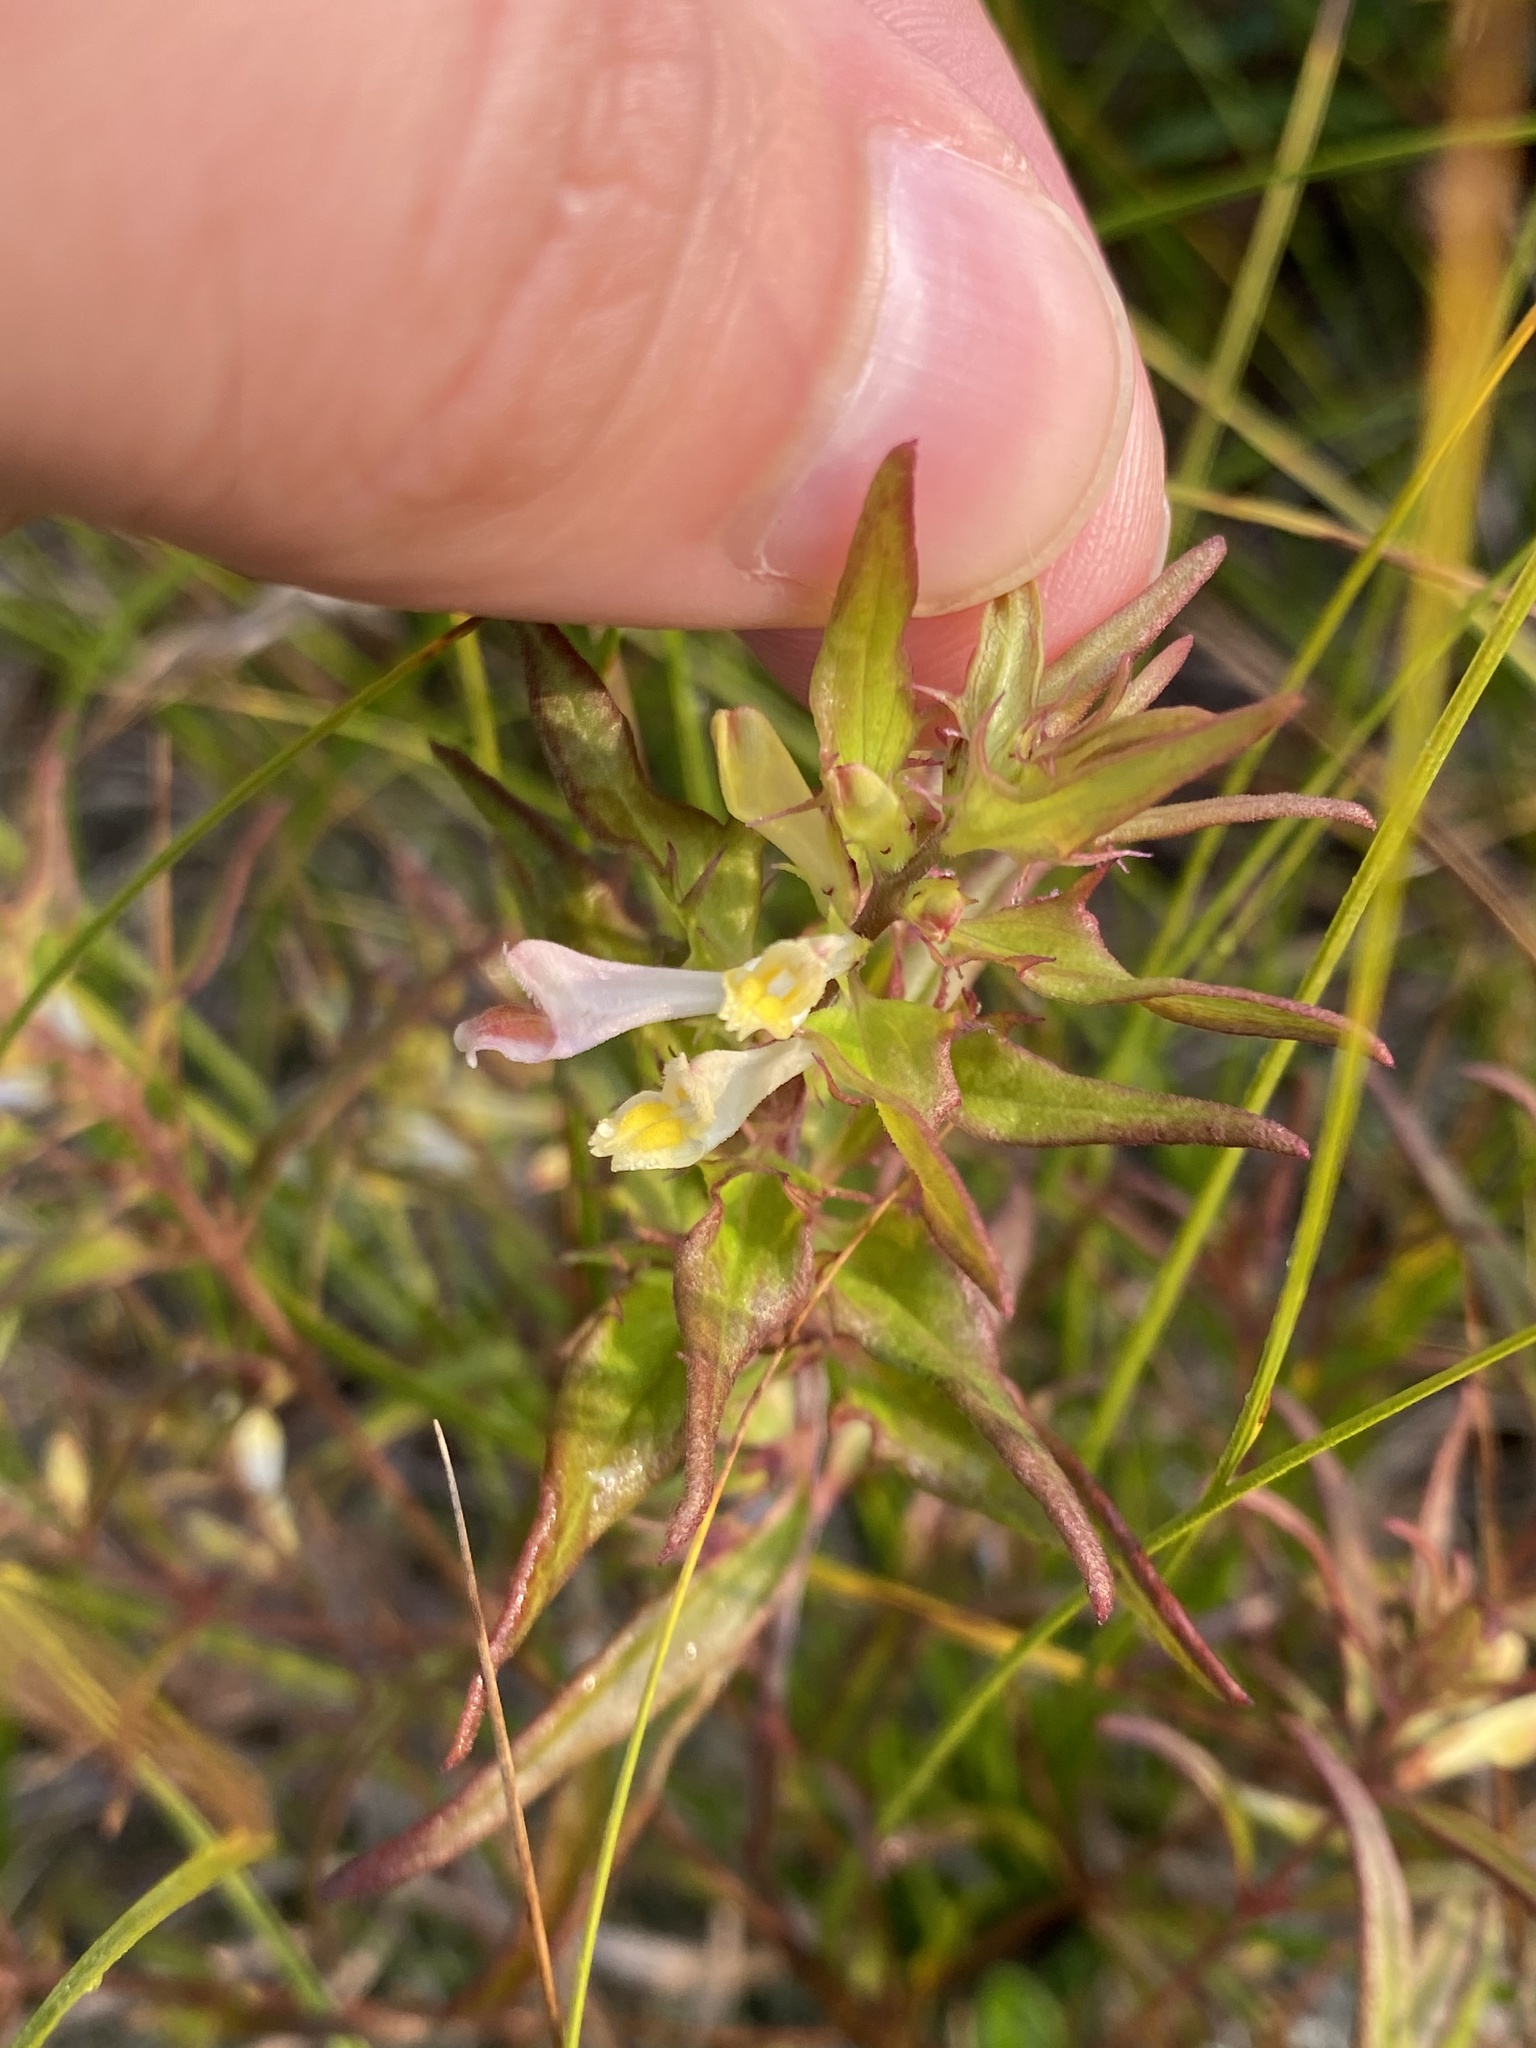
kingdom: Plantae
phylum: Tracheophyta
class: Magnoliopsida
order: Lamiales
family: Orobanchaceae
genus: Melampyrum
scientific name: Melampyrum lineare
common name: American cow-wheat
